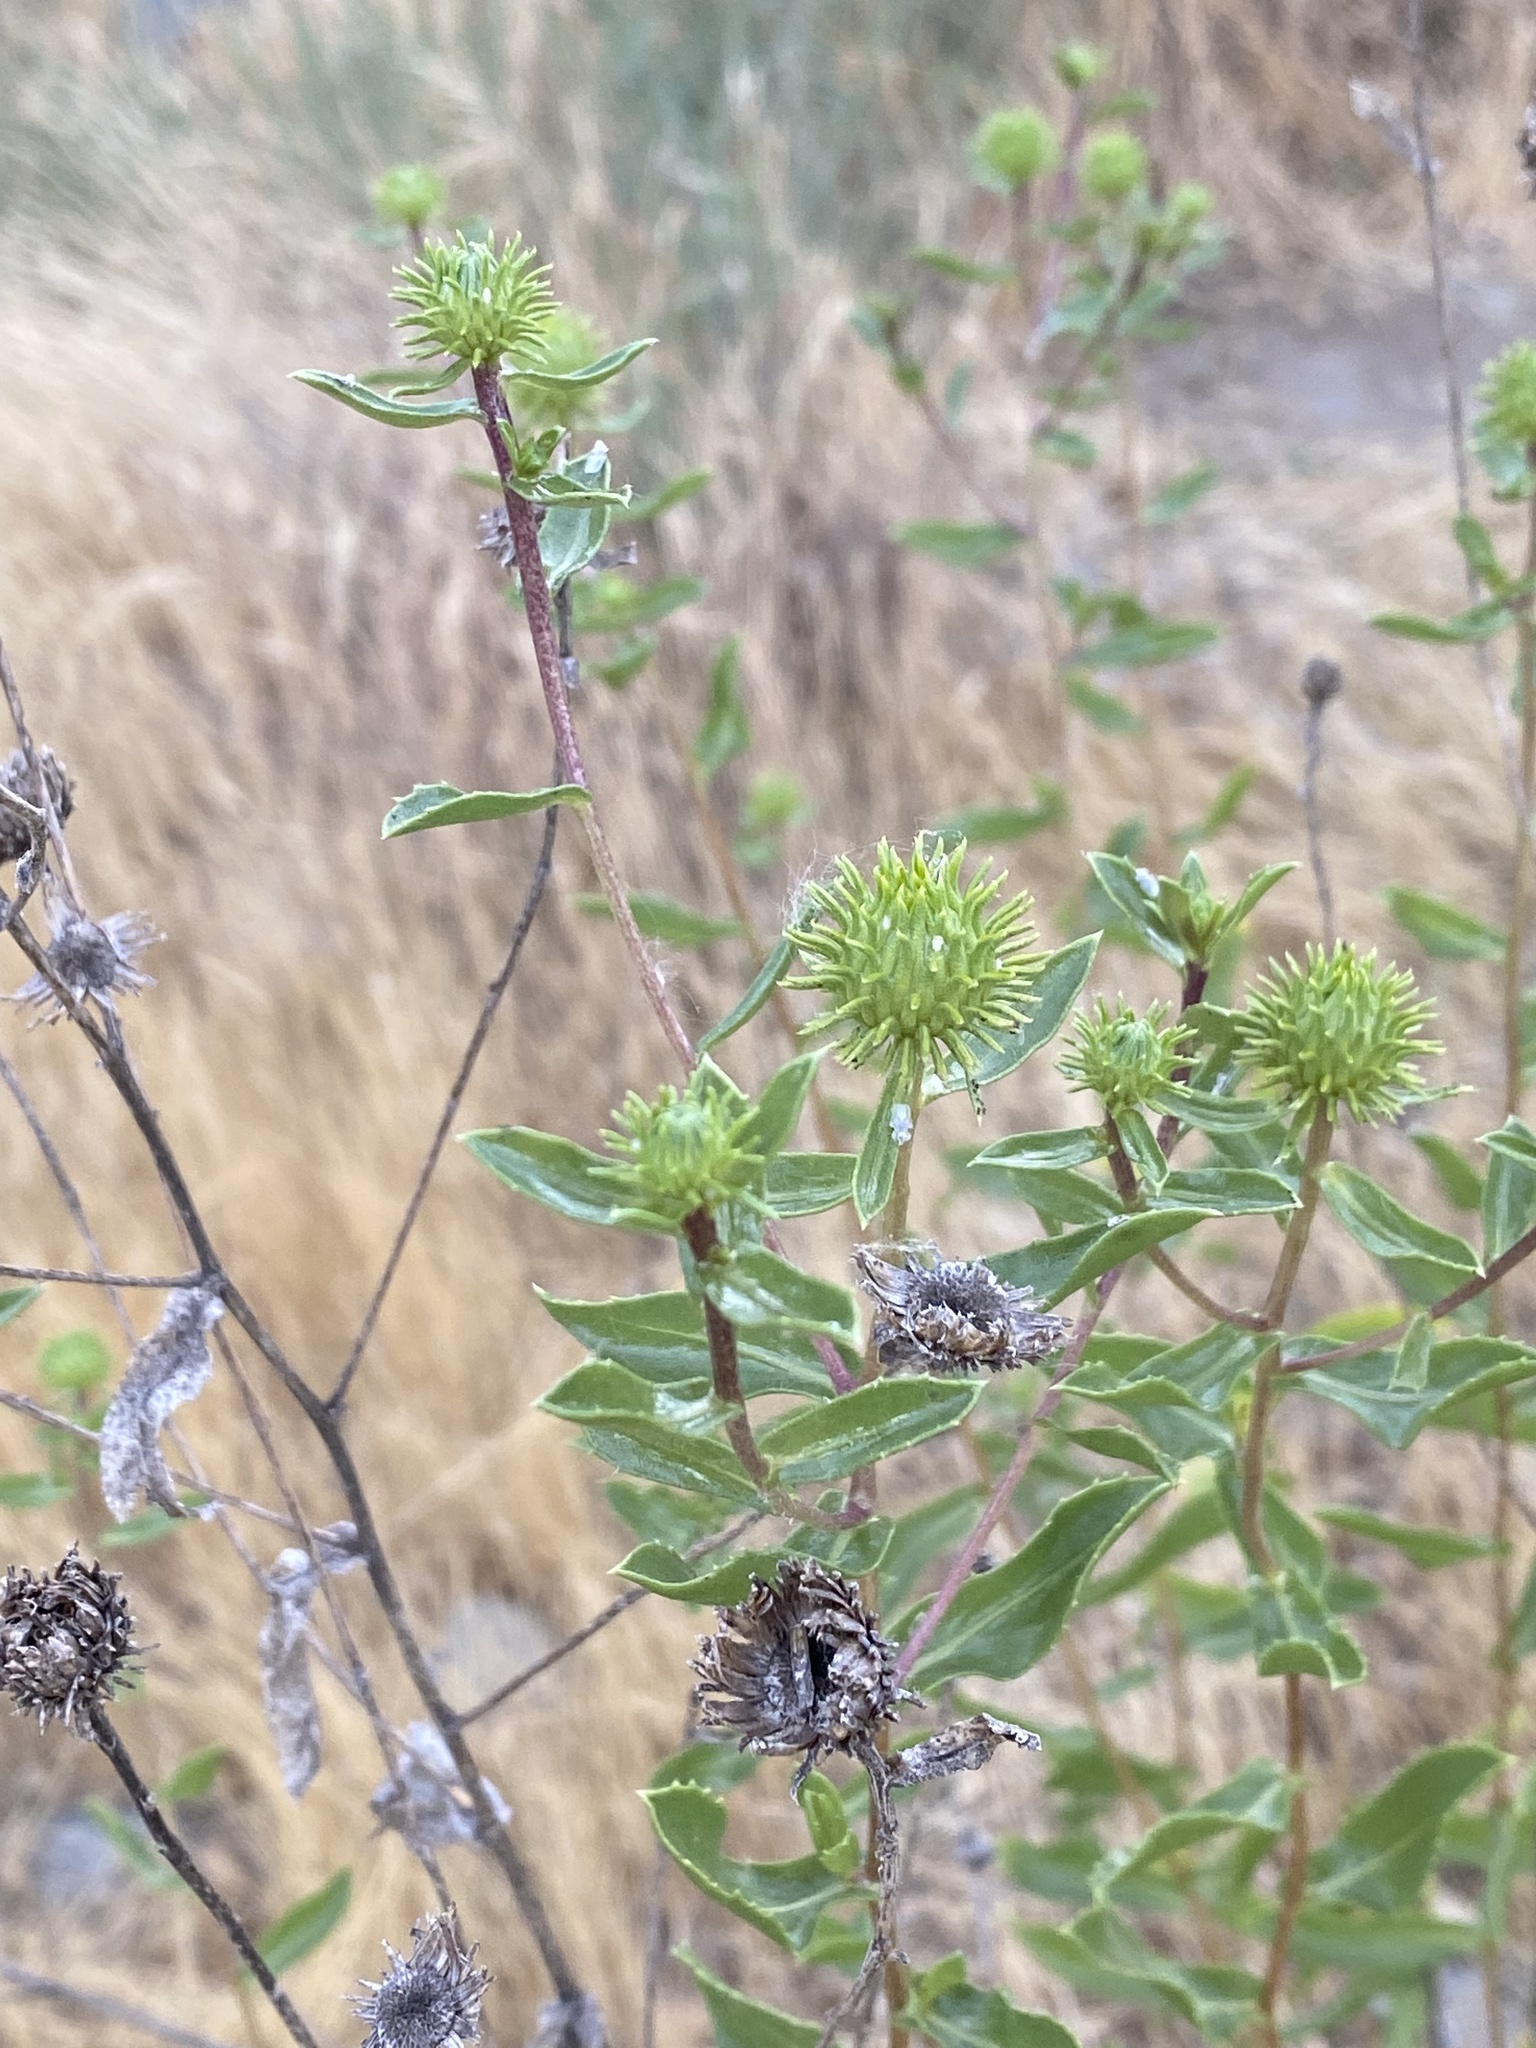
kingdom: Plantae
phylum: Tracheophyta
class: Magnoliopsida
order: Asterales
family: Asteraceae
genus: Grindelia
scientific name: Grindelia hirsutula
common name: Hairy gumweed
